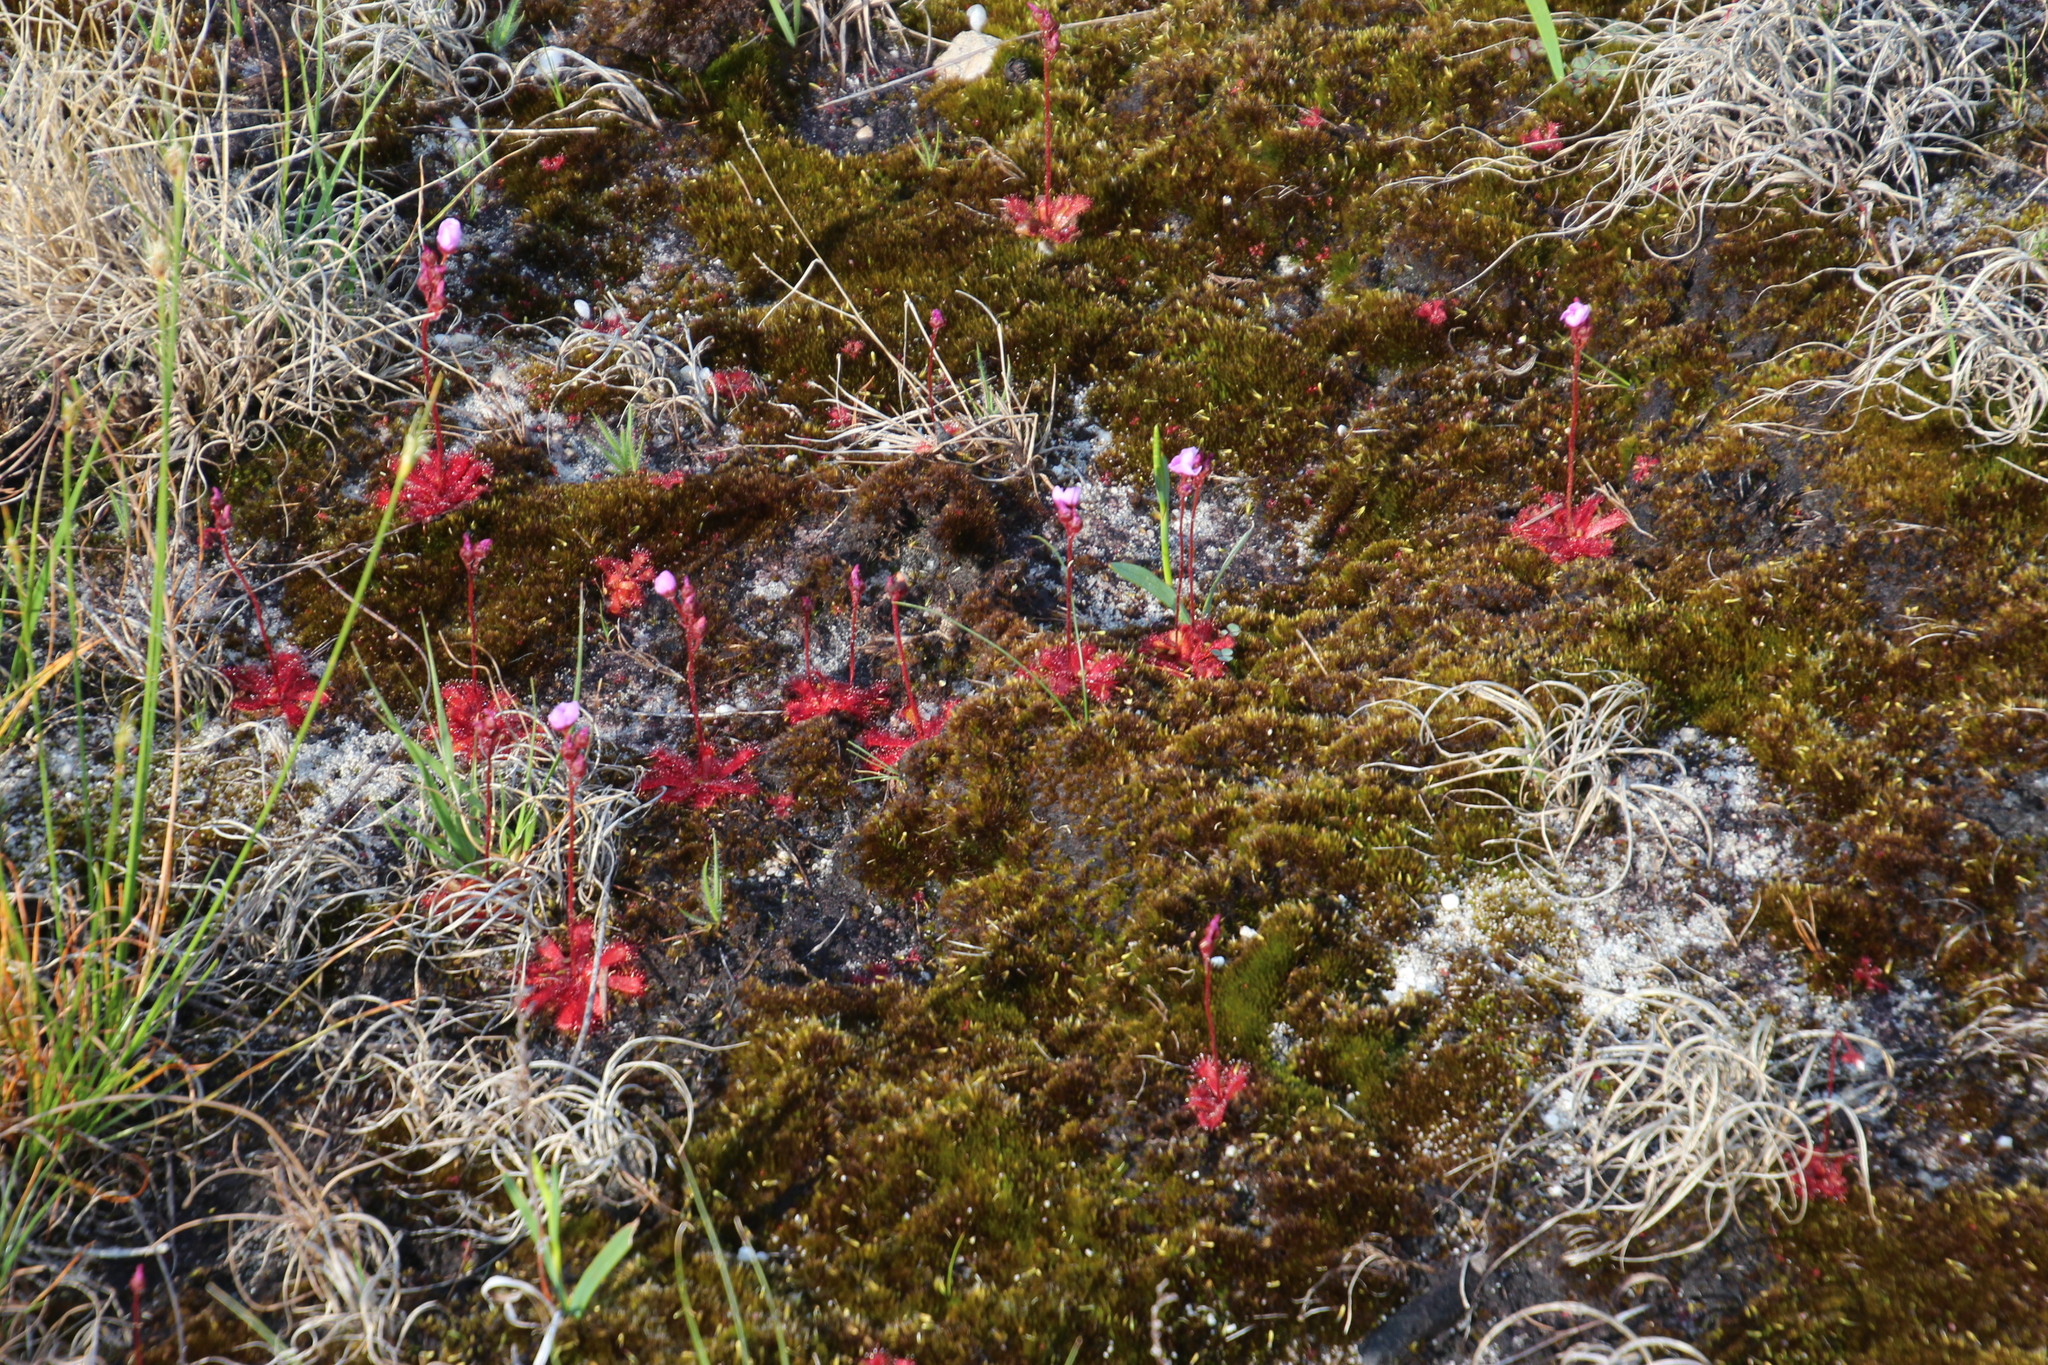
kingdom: Plantae
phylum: Tracheophyta
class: Magnoliopsida
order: Caryophyllales
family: Droseraceae
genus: Drosera
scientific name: Drosera trinervia
